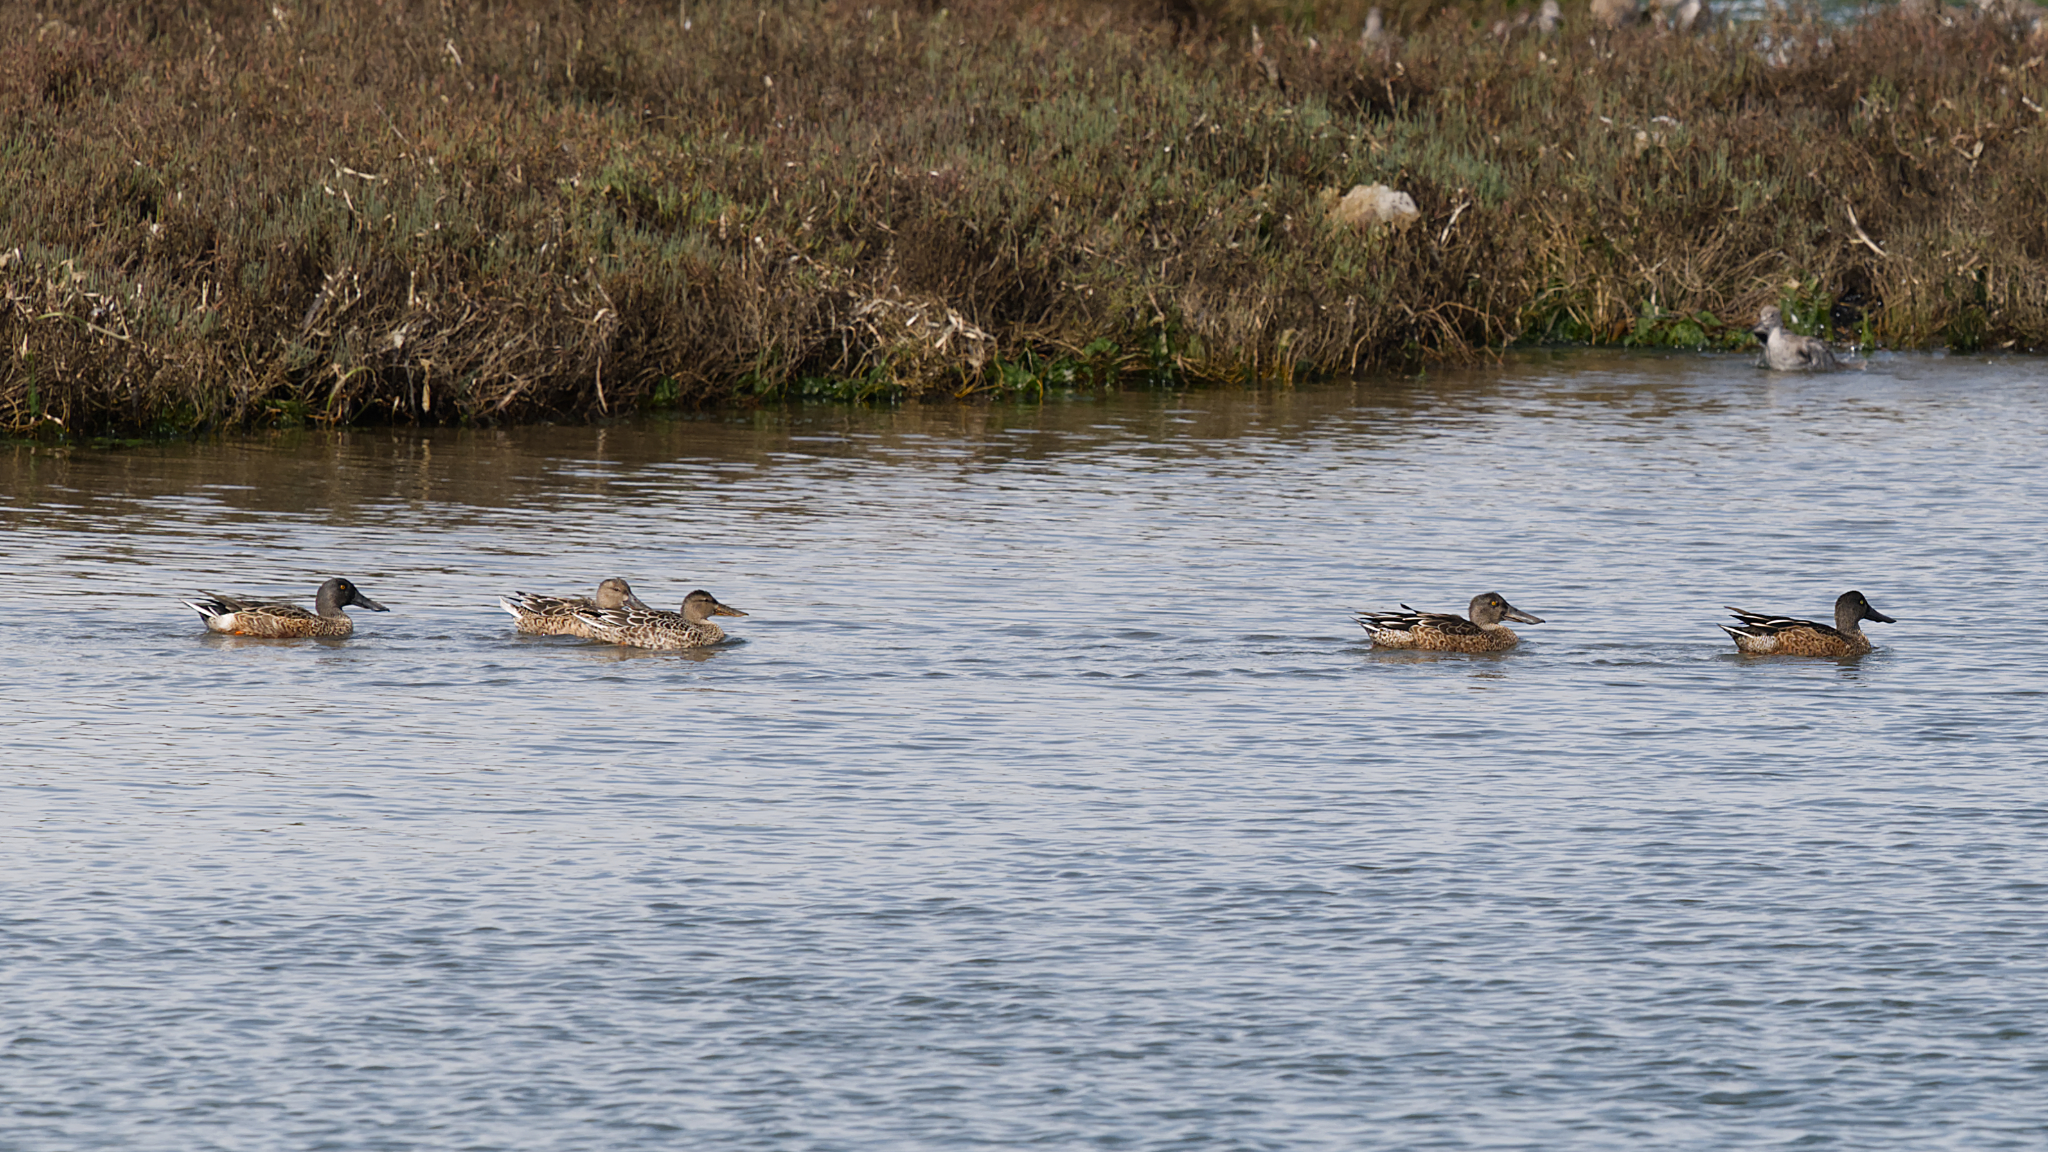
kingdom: Animalia
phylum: Chordata
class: Aves
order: Anseriformes
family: Anatidae
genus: Spatula
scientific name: Spatula clypeata
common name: Northern shoveler
